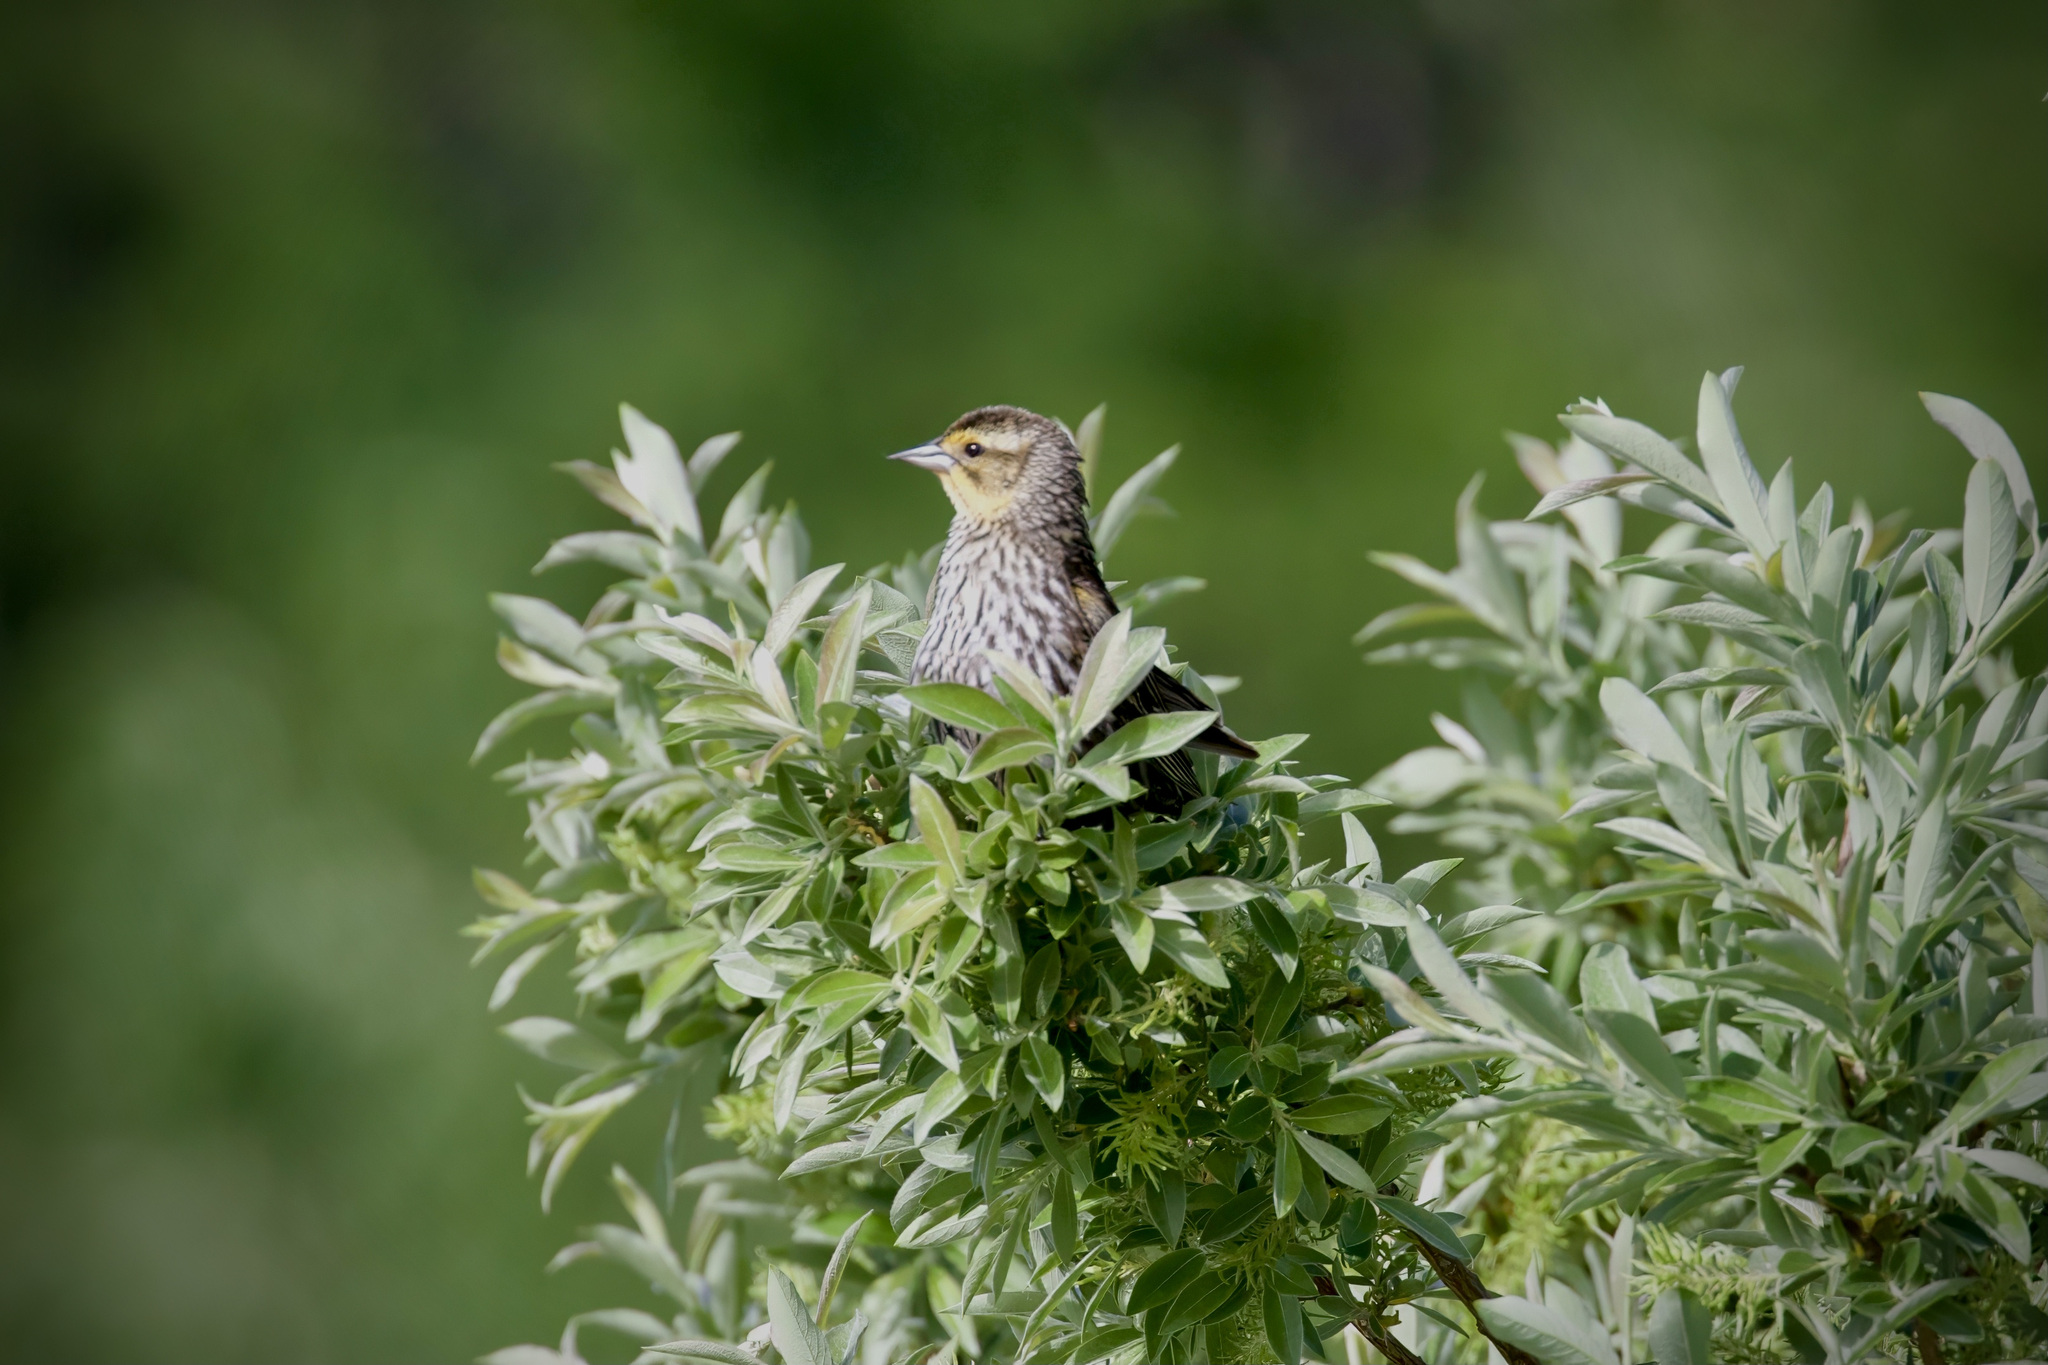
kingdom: Animalia
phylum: Chordata
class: Aves
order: Passeriformes
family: Icteridae
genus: Agelaius
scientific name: Agelaius phoeniceus
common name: Red-winged blackbird
